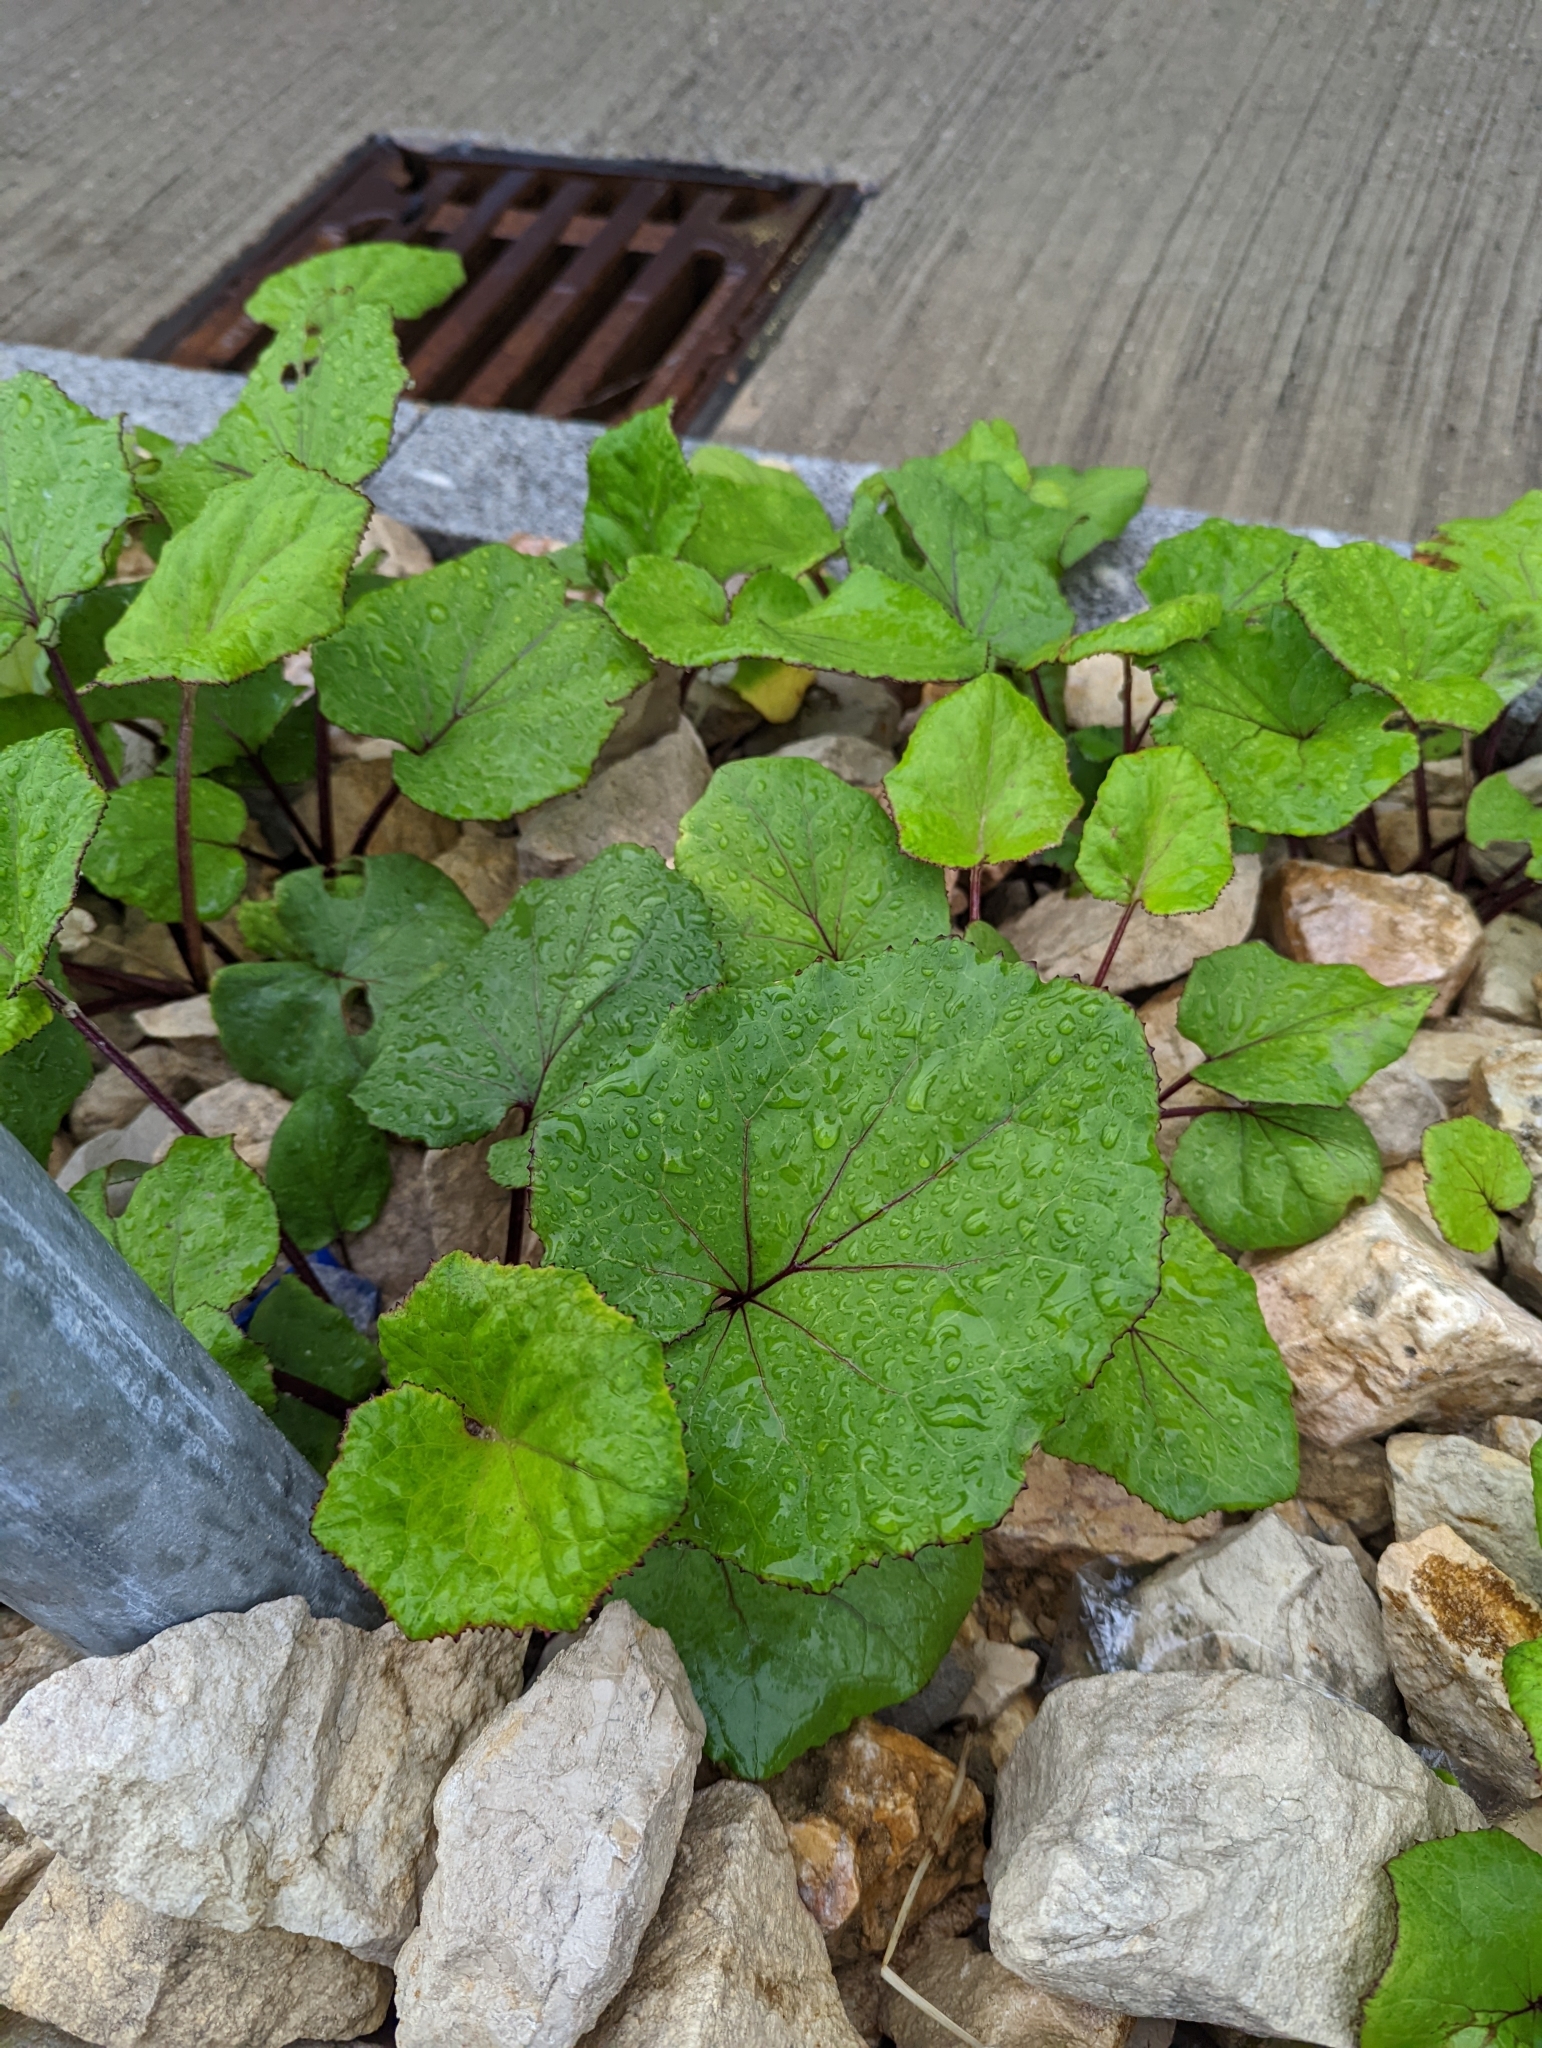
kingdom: Plantae
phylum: Tracheophyta
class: Magnoliopsida
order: Asterales
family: Asteraceae
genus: Tussilago
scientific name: Tussilago farfara
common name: Coltsfoot
